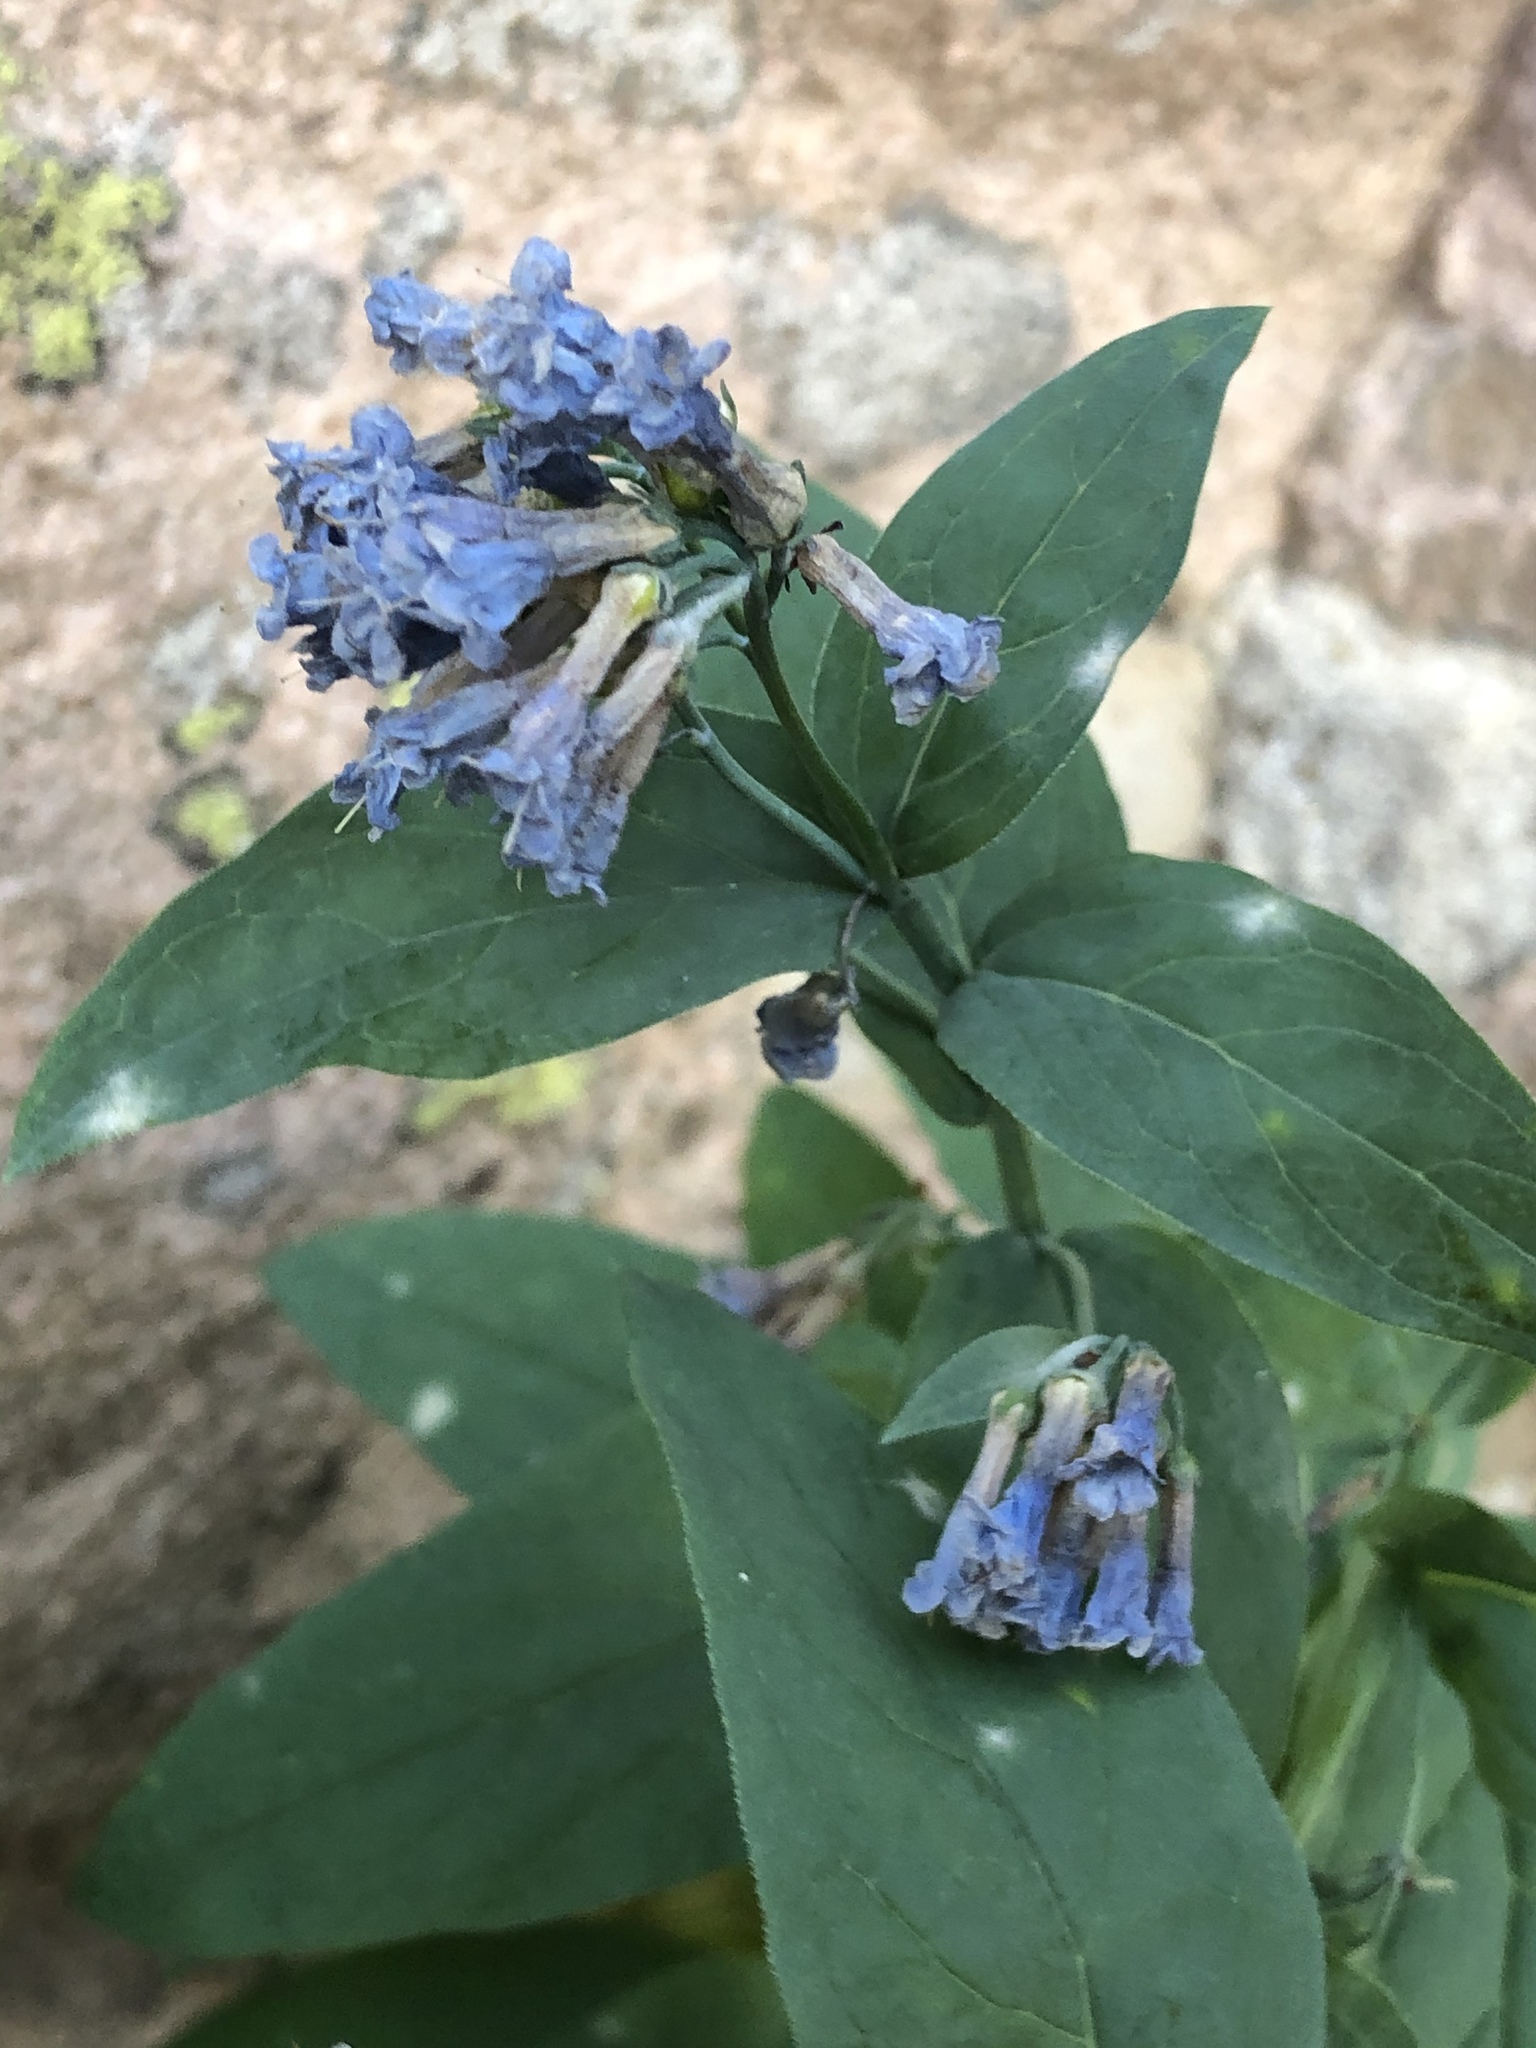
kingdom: Plantae
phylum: Tracheophyta
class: Magnoliopsida
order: Boraginales
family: Boraginaceae
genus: Mertensia
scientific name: Mertensia ciliata
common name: Tall chiming-bells
